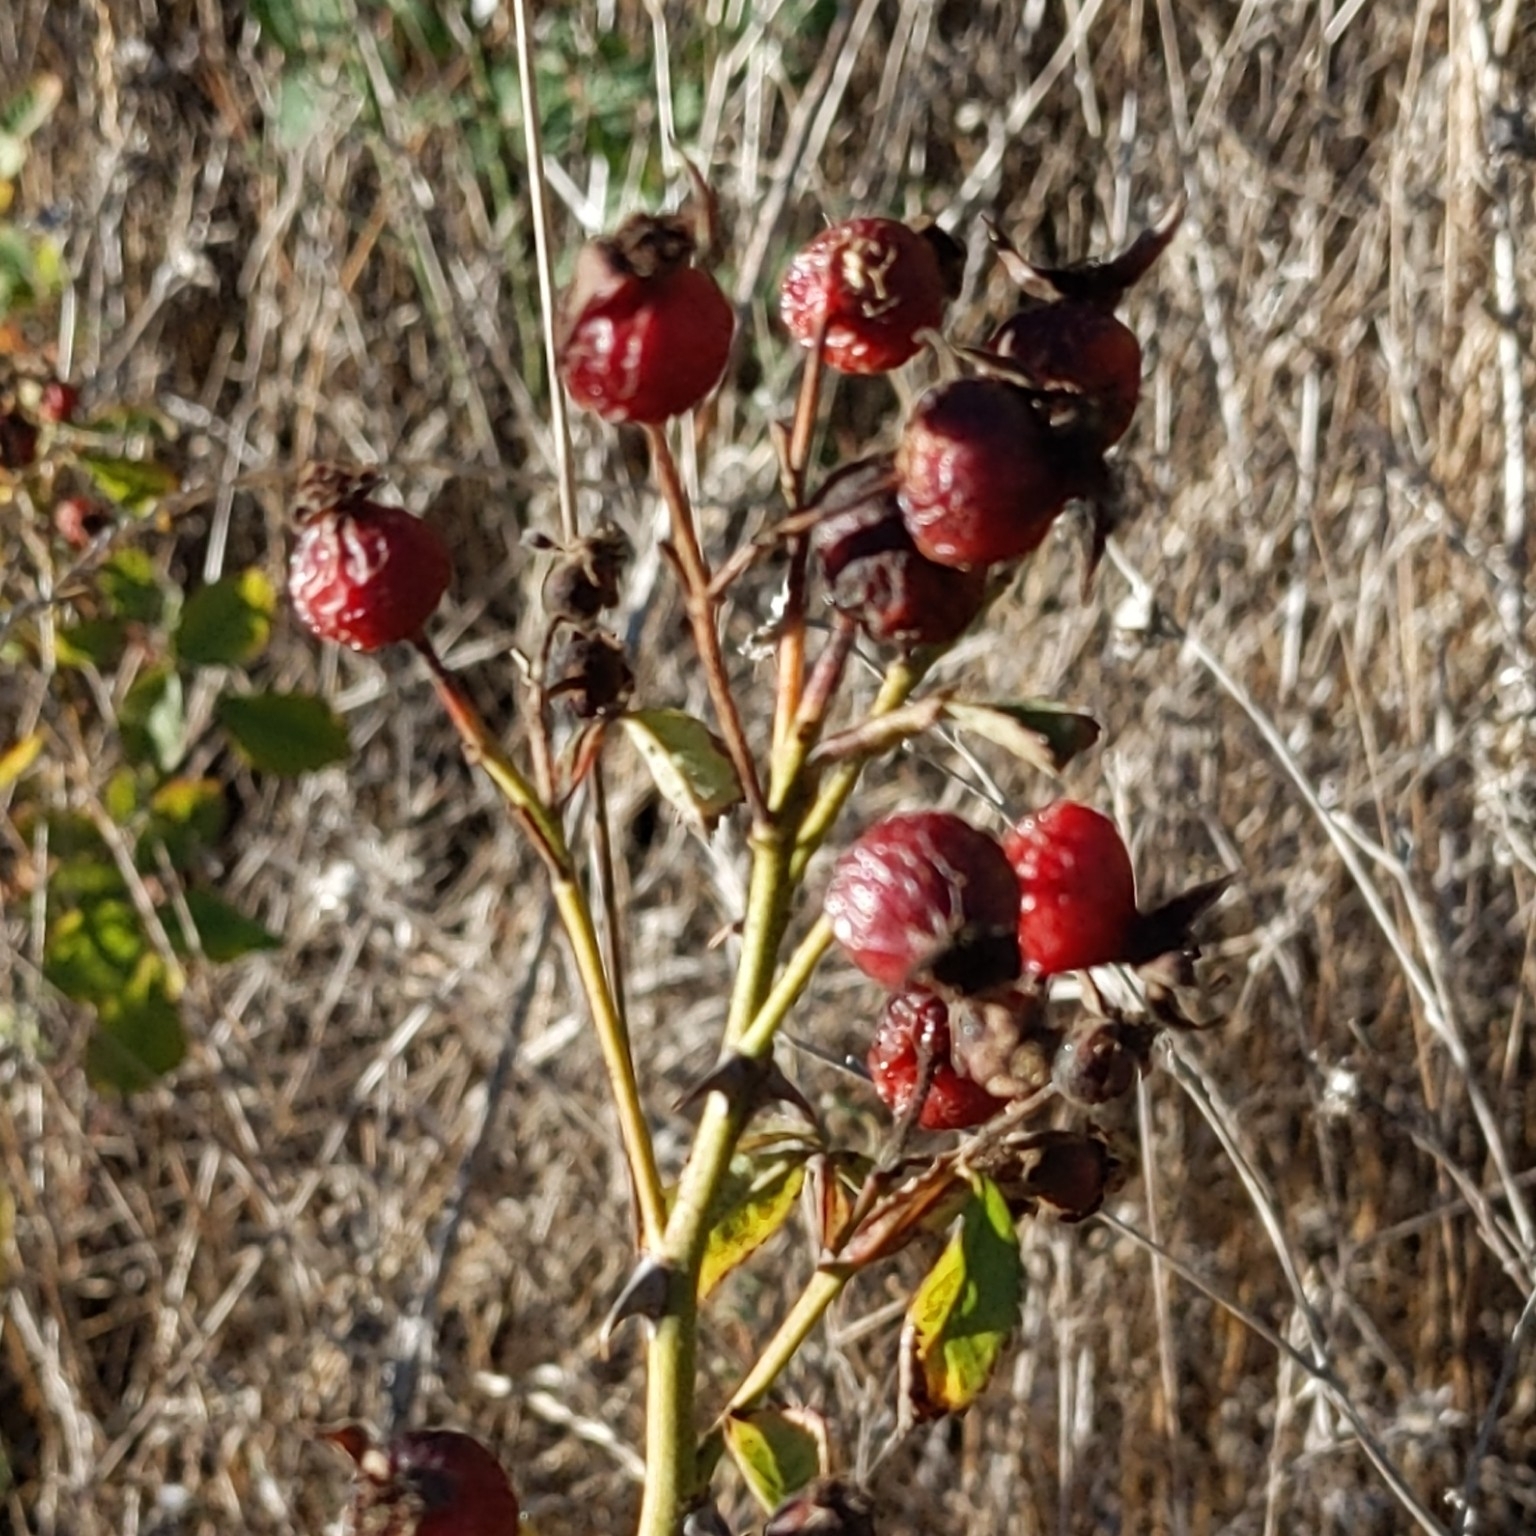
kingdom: Plantae
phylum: Tracheophyta
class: Magnoliopsida
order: Rosales
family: Rosaceae
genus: Rosa
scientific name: Rosa californica
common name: California rose
